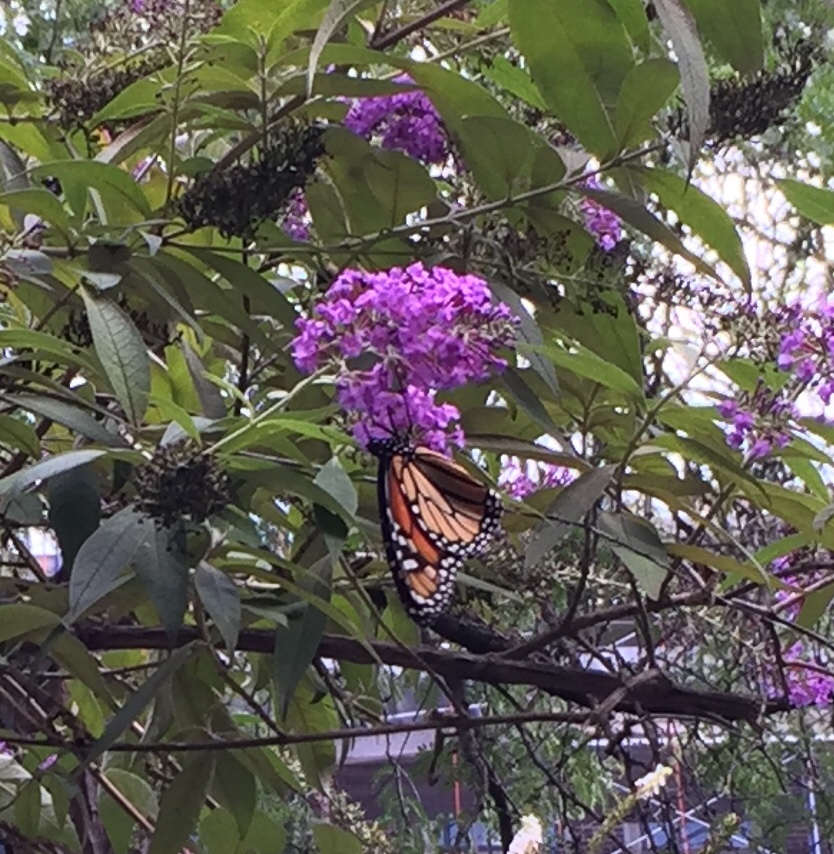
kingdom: Animalia
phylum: Arthropoda
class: Insecta
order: Lepidoptera
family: Nymphalidae
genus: Danaus
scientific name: Danaus plexippus
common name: Monarch
